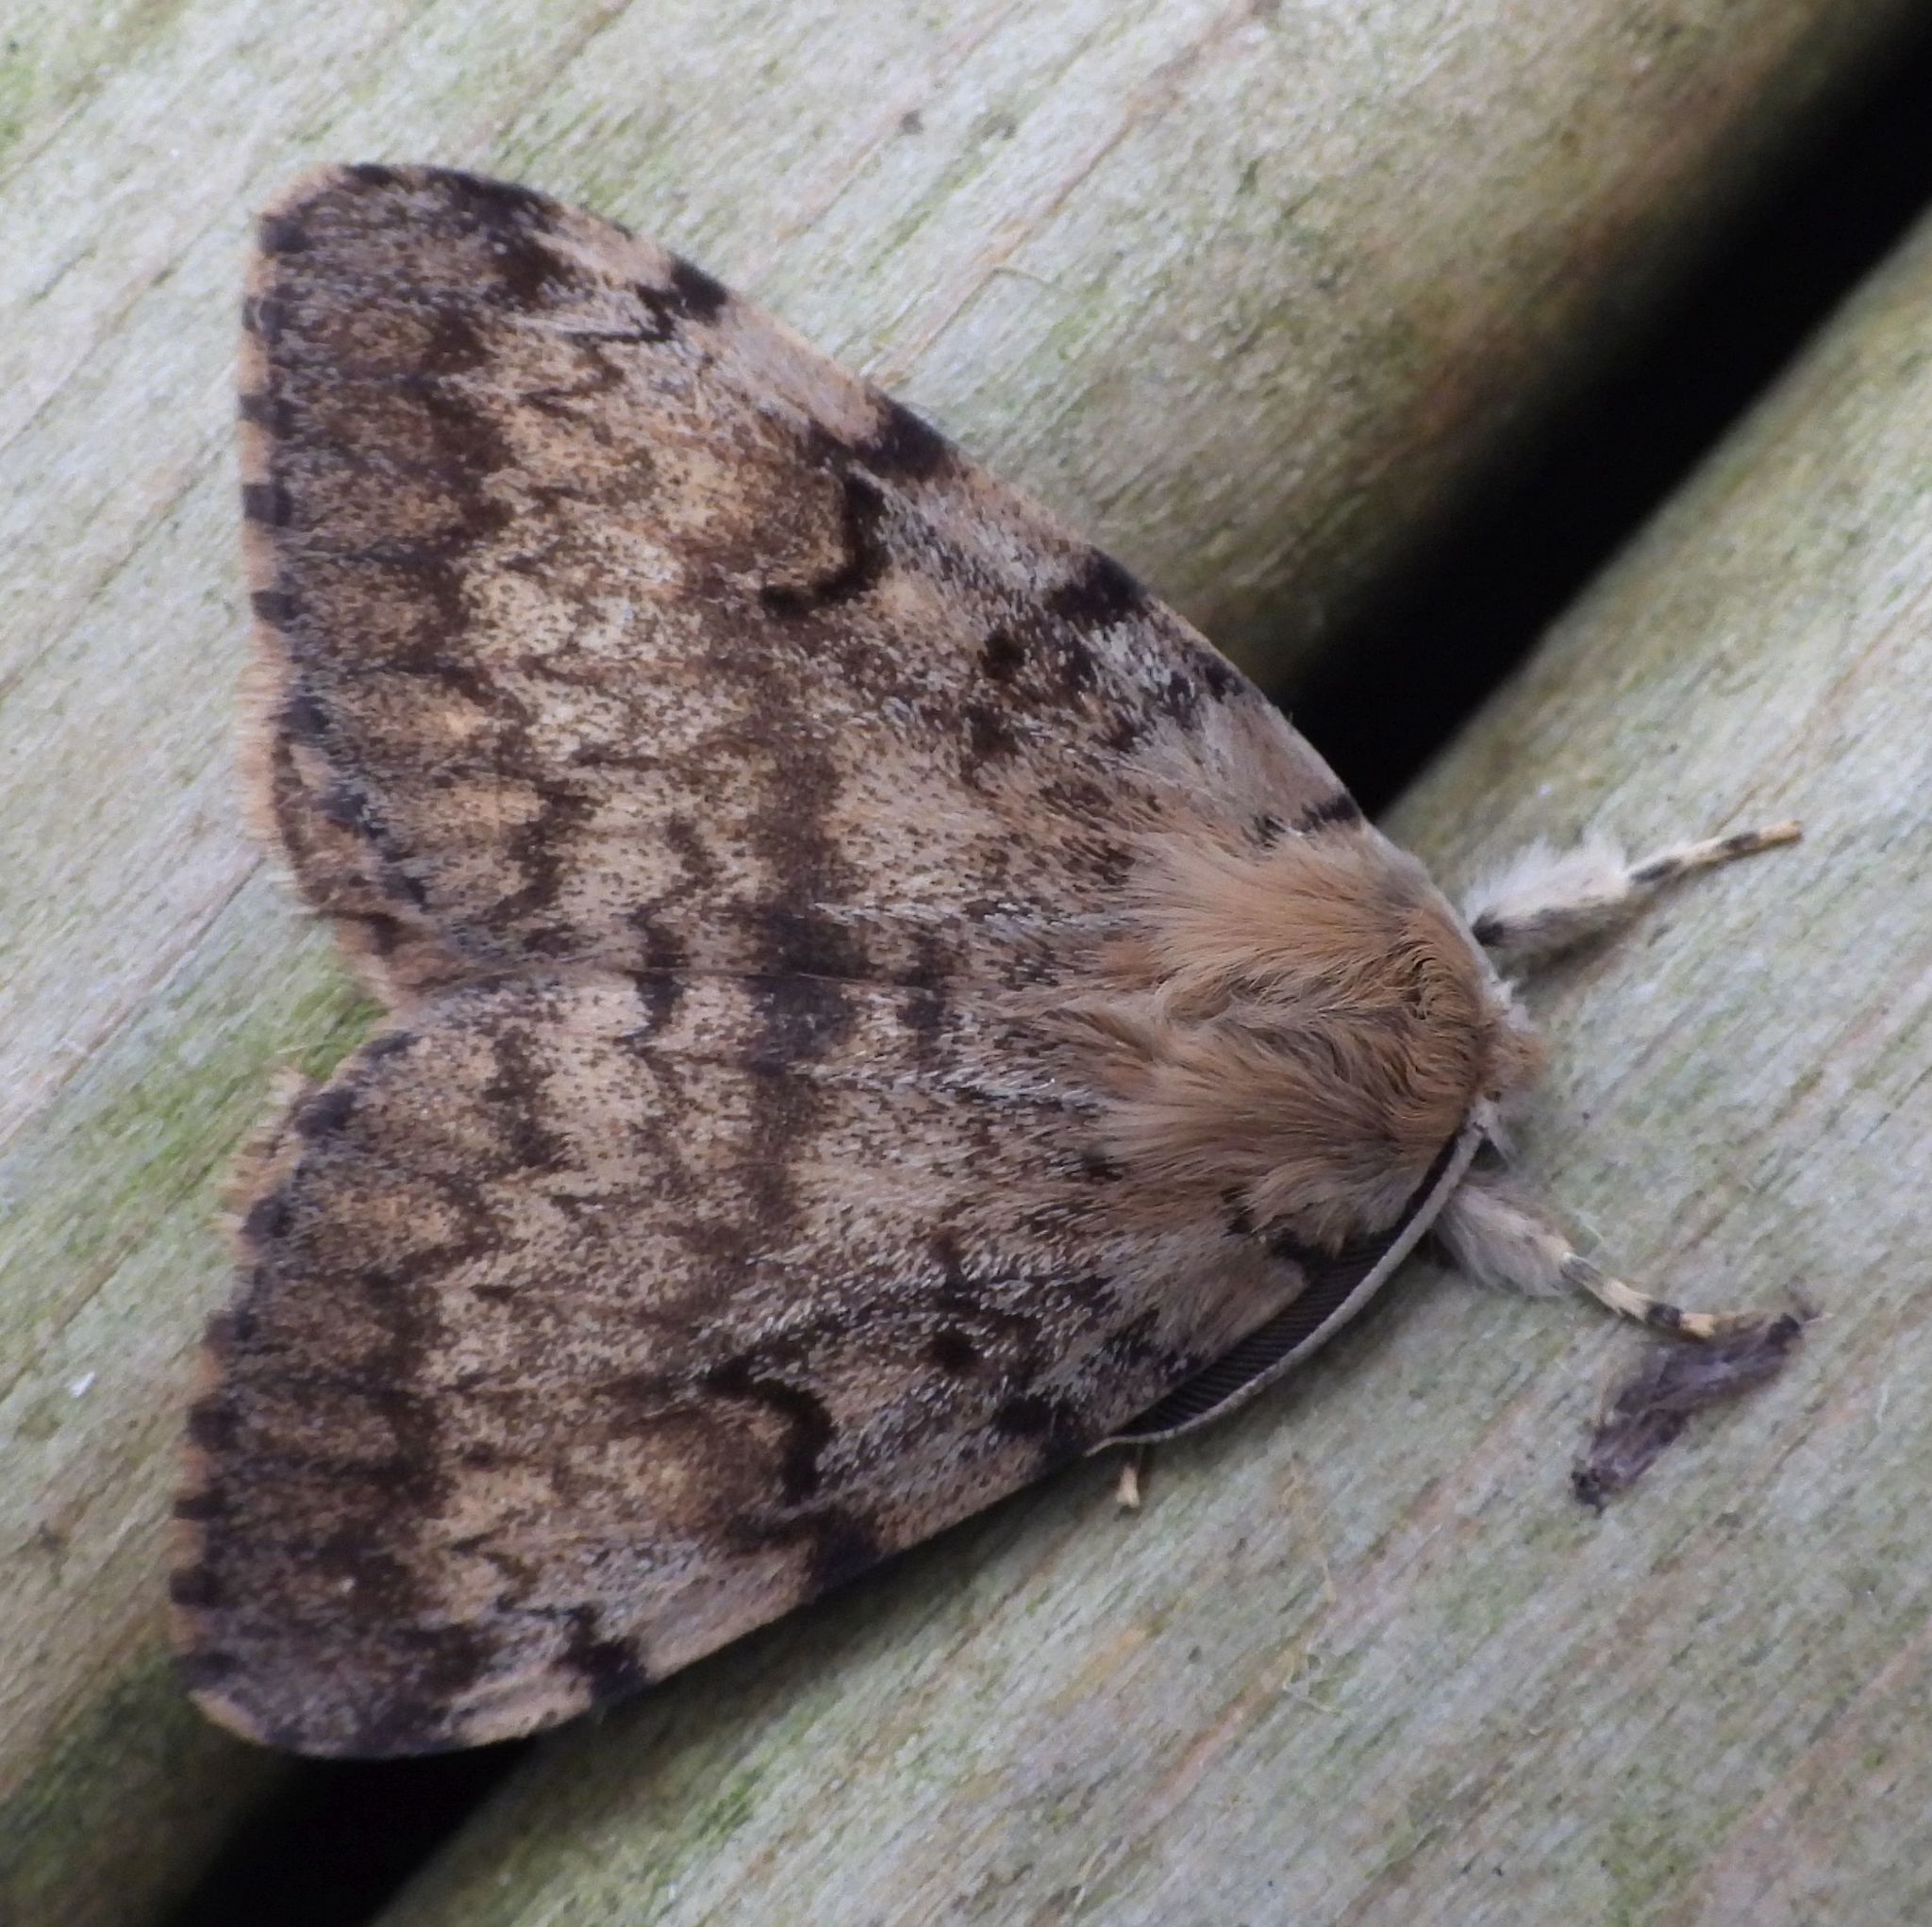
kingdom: Animalia
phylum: Arthropoda
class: Insecta
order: Lepidoptera
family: Erebidae
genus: Lymantria
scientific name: Lymantria dispar
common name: Gypsy moth
